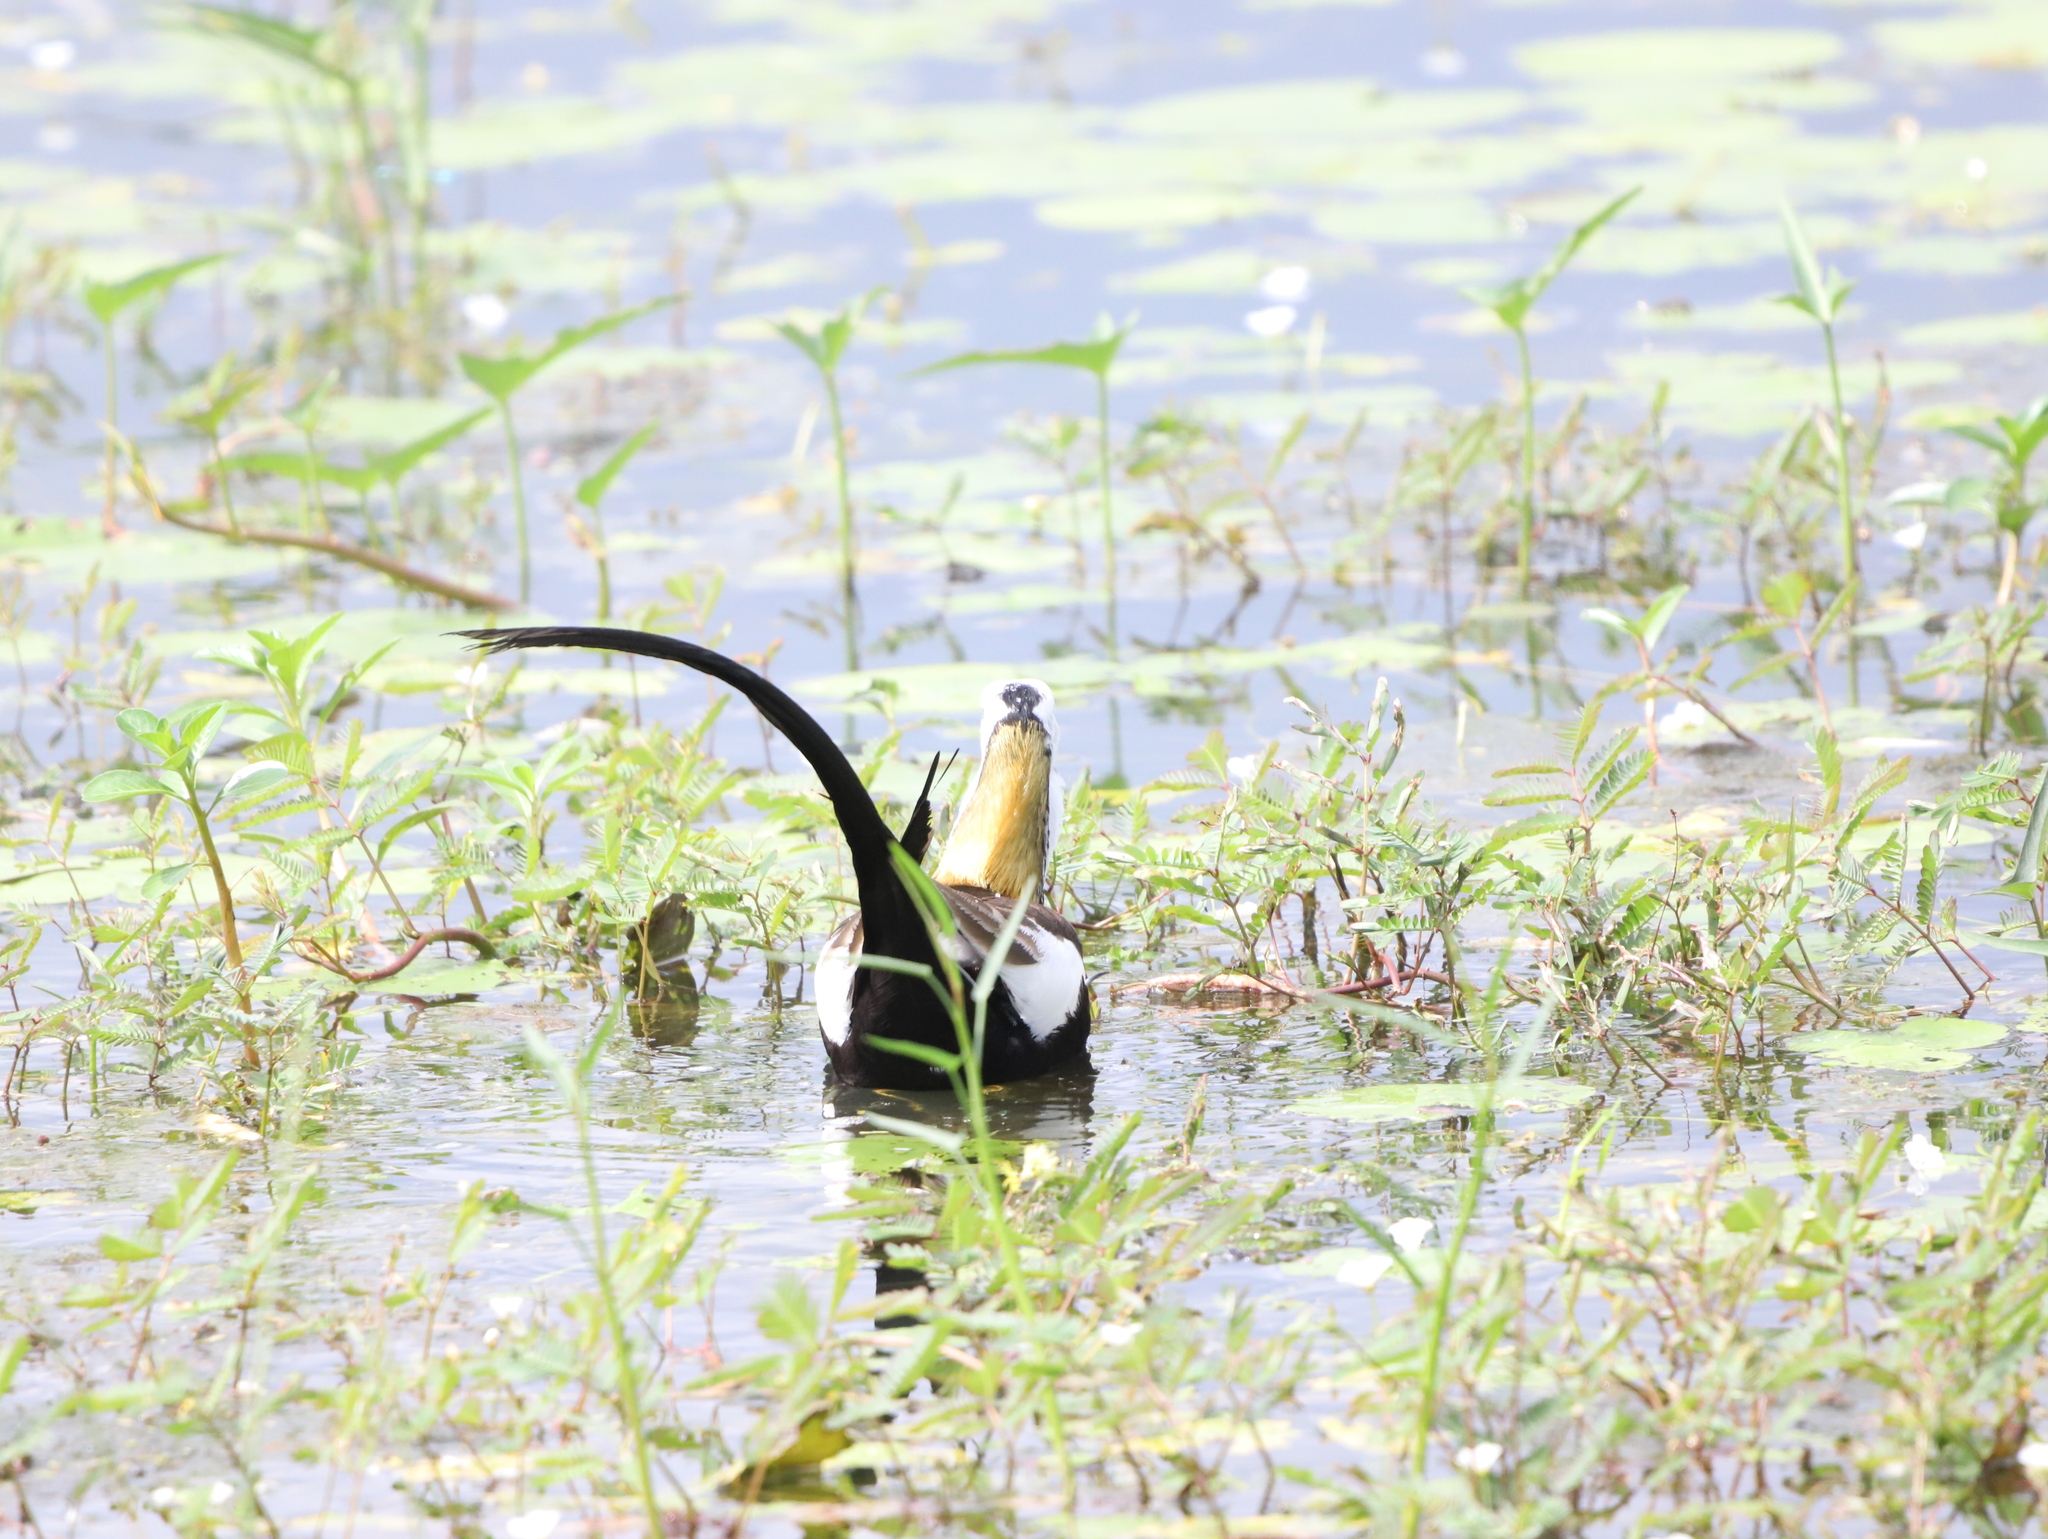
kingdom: Animalia
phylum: Chordata
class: Aves
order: Charadriiformes
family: Jacanidae
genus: Hydrophasianus
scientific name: Hydrophasianus chirurgus
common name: Pheasant-tailed jacana
